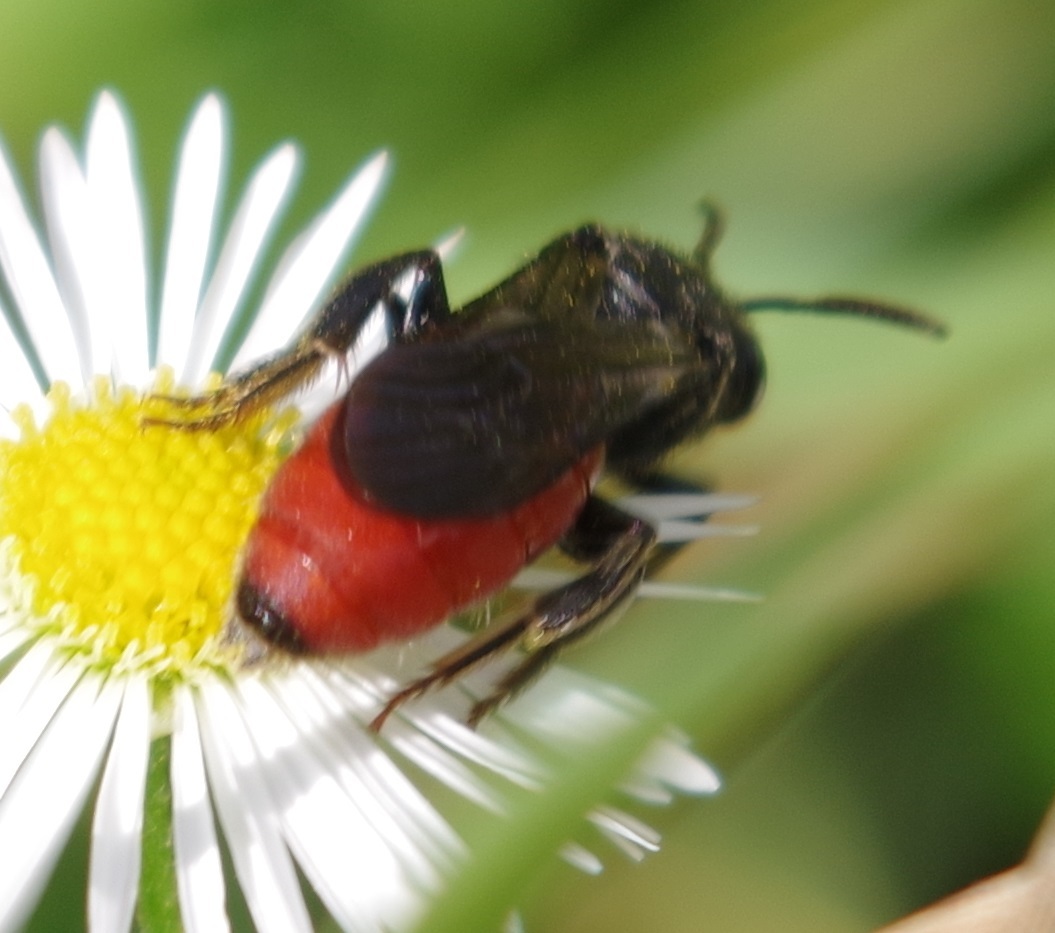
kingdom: Animalia
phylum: Arthropoda
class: Insecta
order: Hymenoptera
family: Halictidae
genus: Sphecodes
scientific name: Sphecodes albilabris
